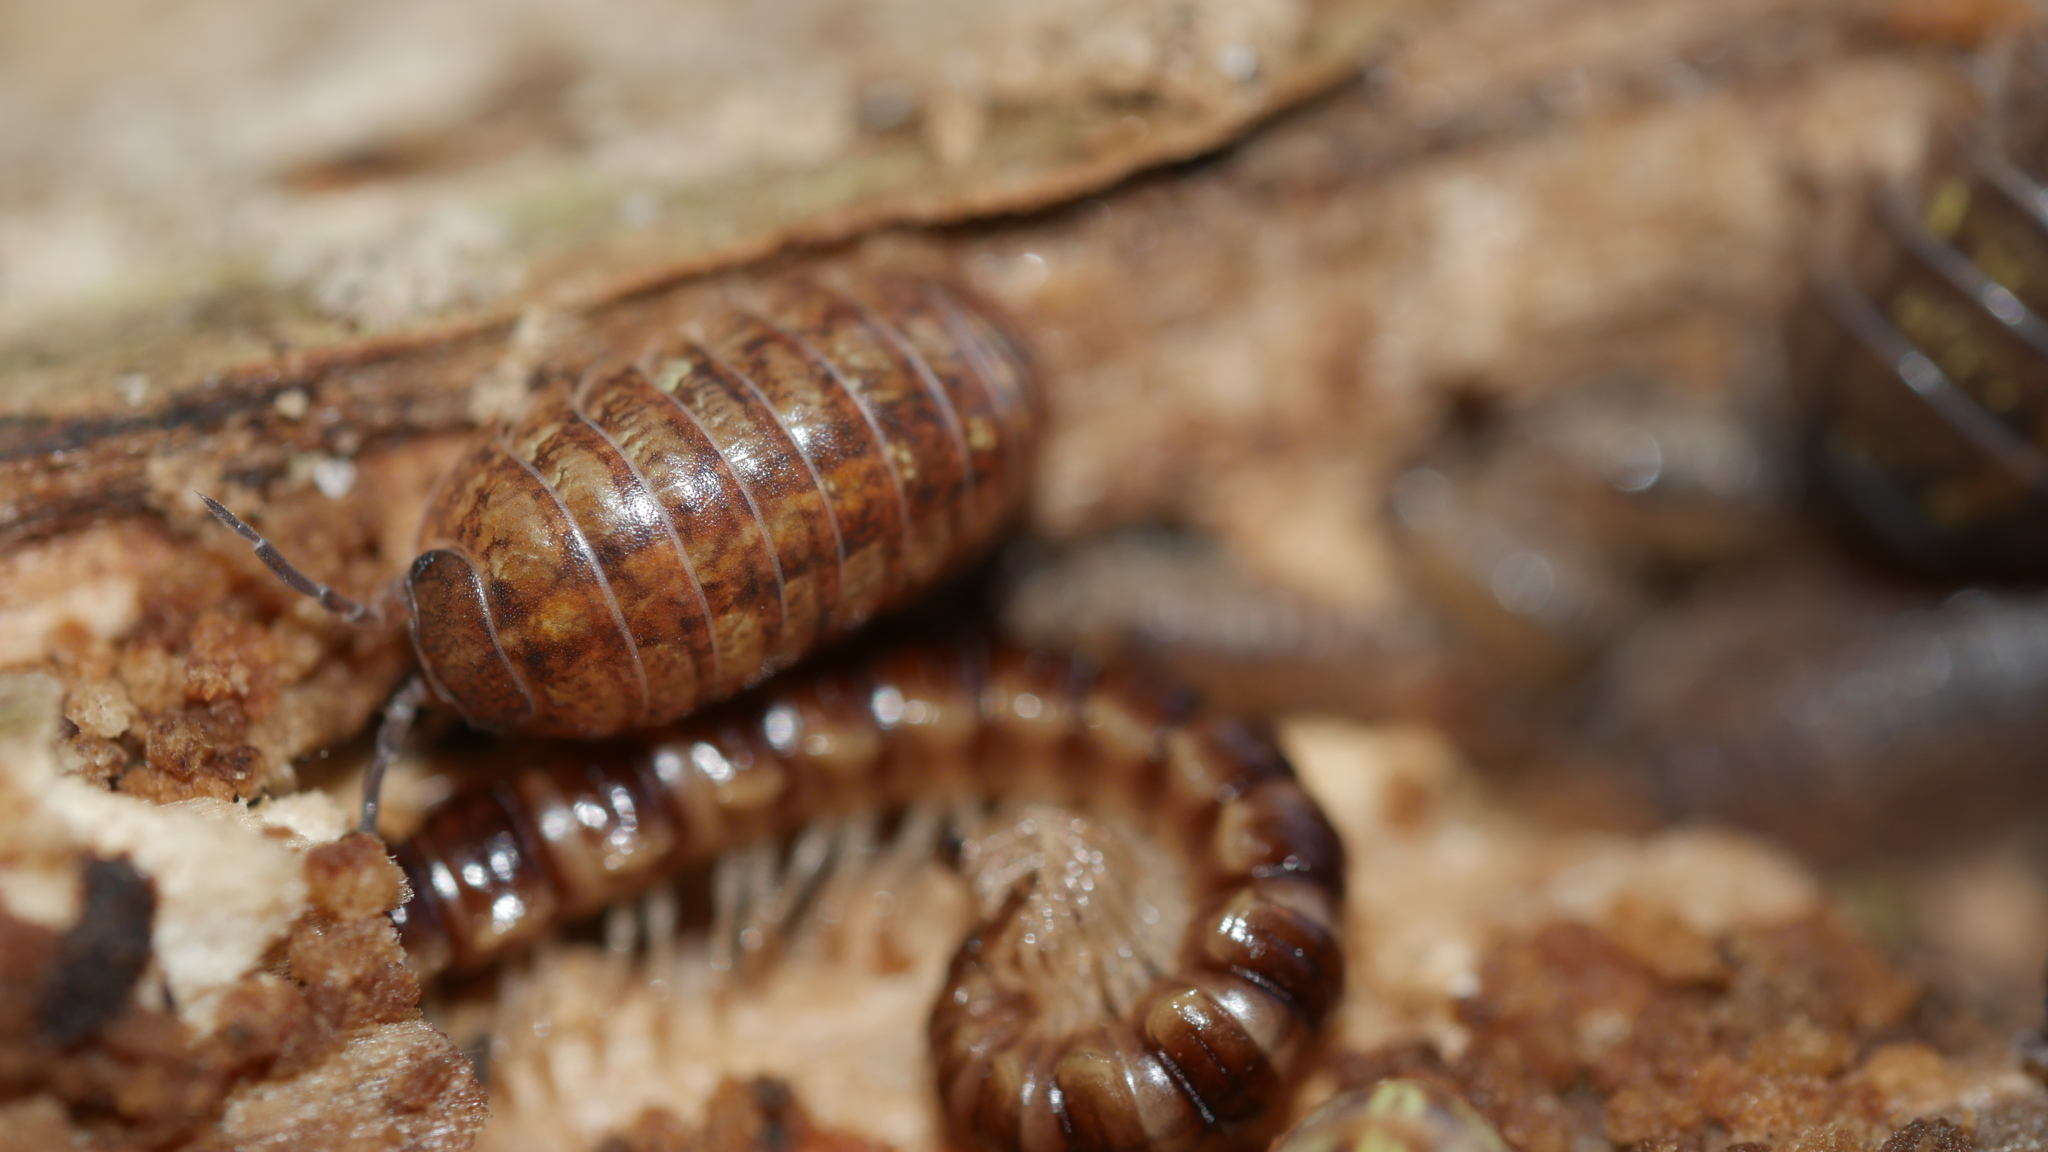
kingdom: Animalia
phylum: Arthropoda
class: Malacostraca
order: Isopoda
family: Armadillidiidae
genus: Armadillidium
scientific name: Armadillidium vulgare
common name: Common pill woodlouse
